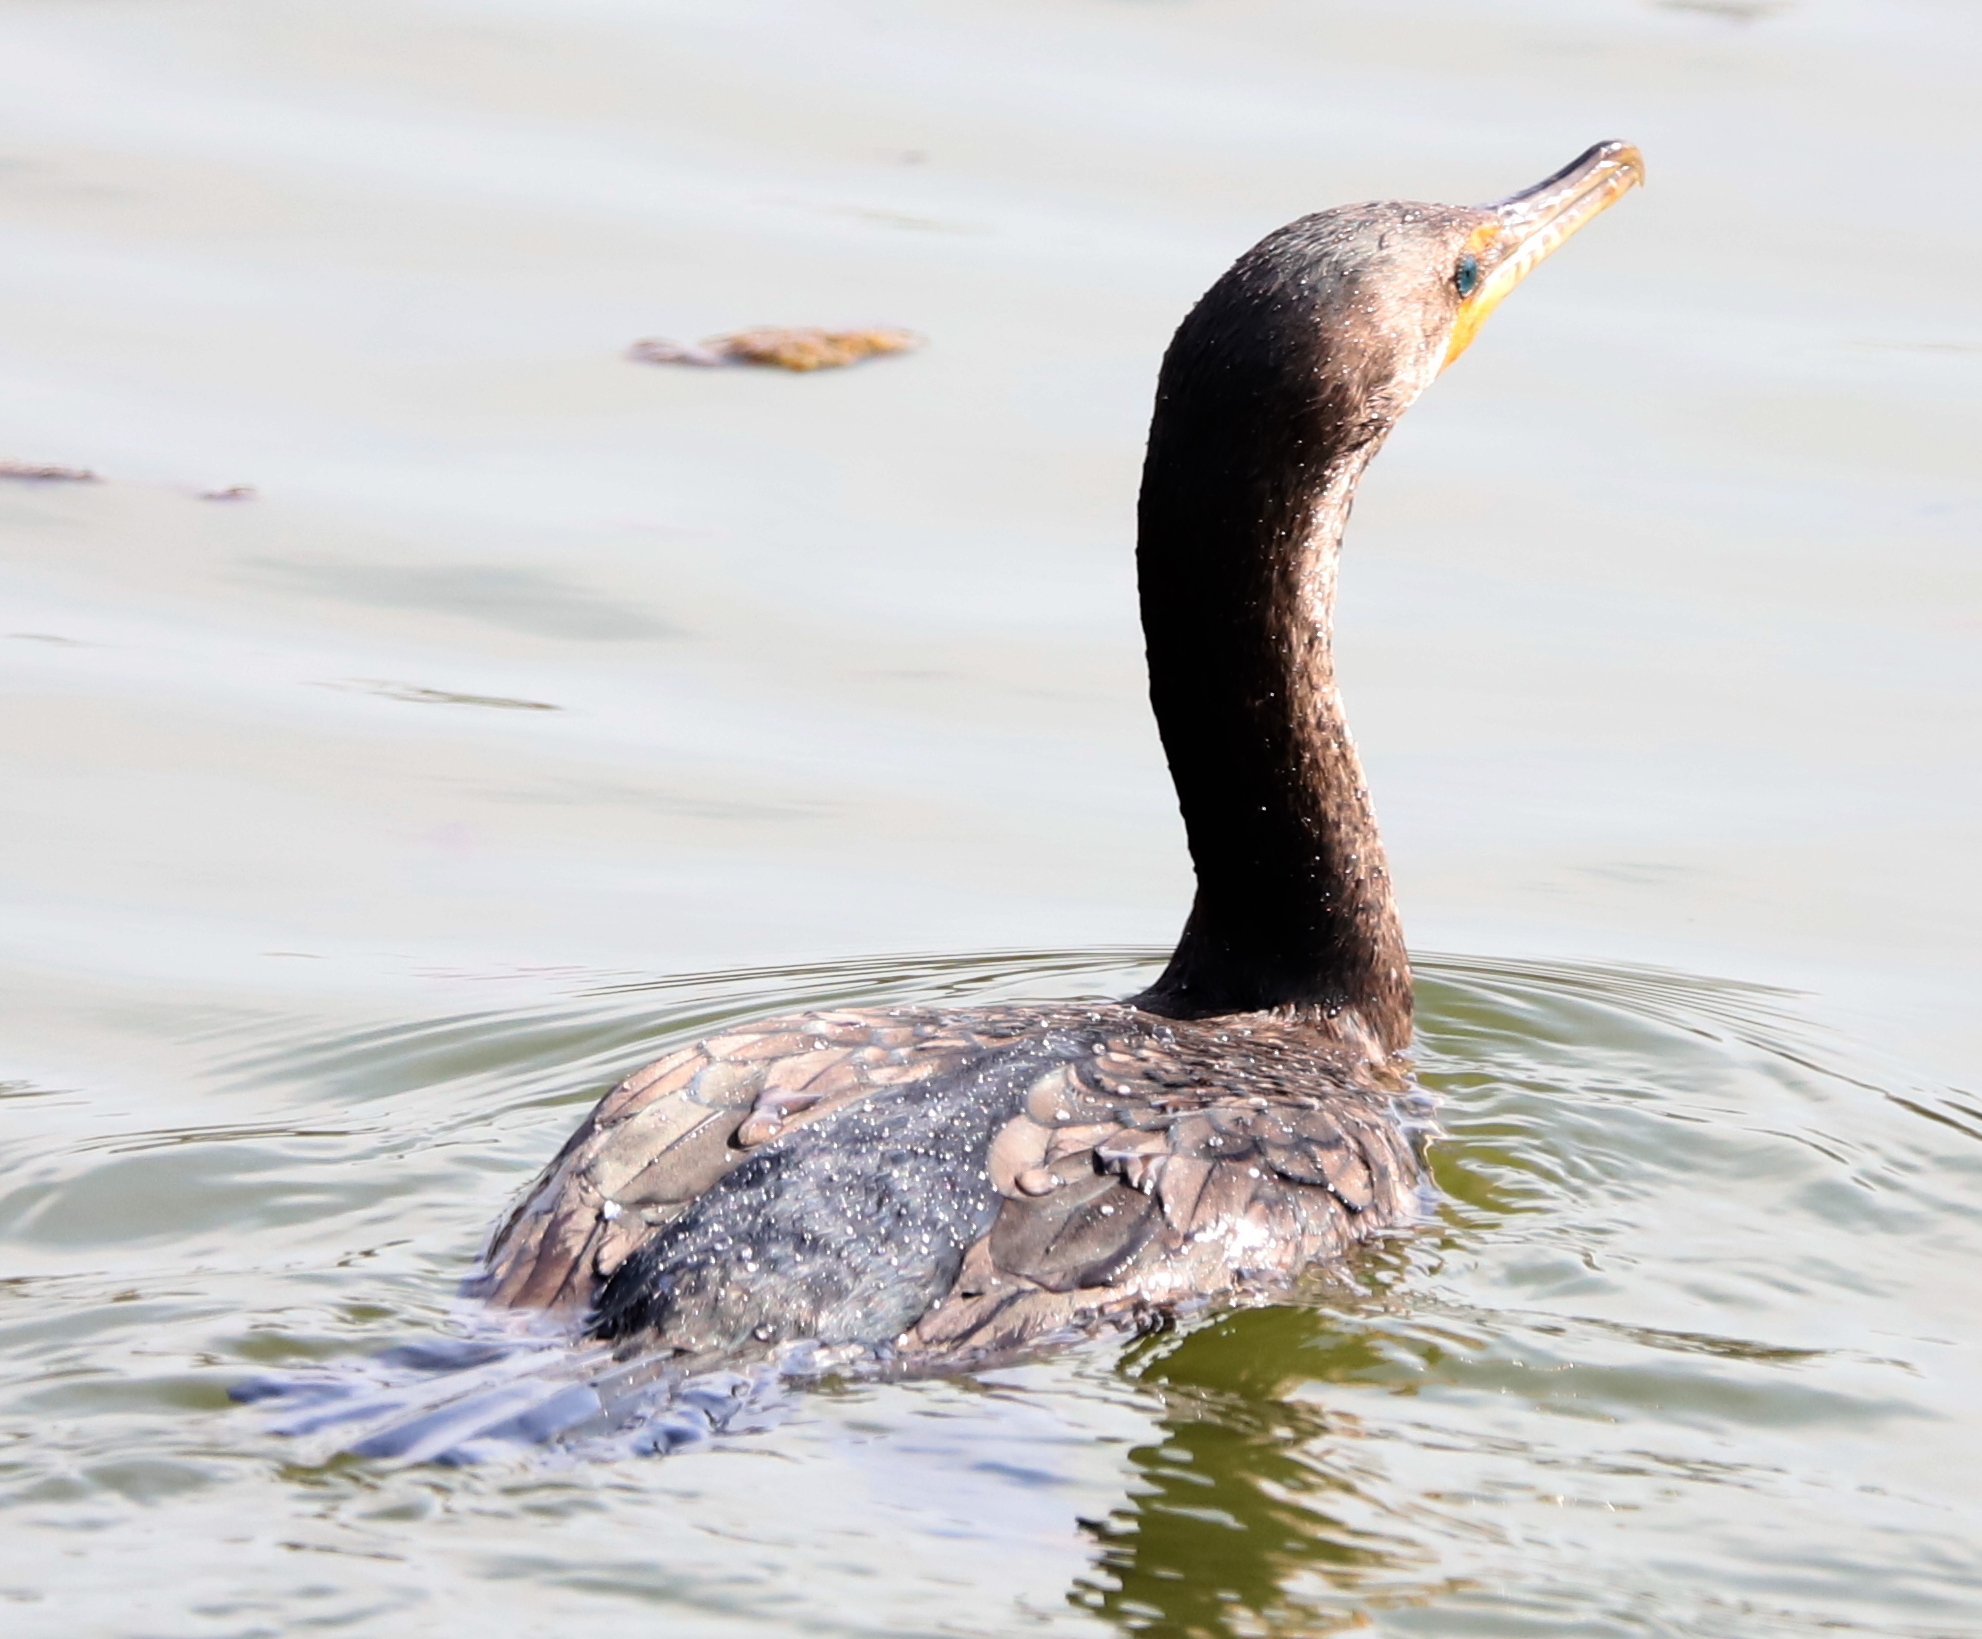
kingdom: Animalia
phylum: Chordata
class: Aves
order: Suliformes
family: Phalacrocoracidae
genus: Phalacrocorax
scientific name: Phalacrocorax auritus
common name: Double-crested cormorant
